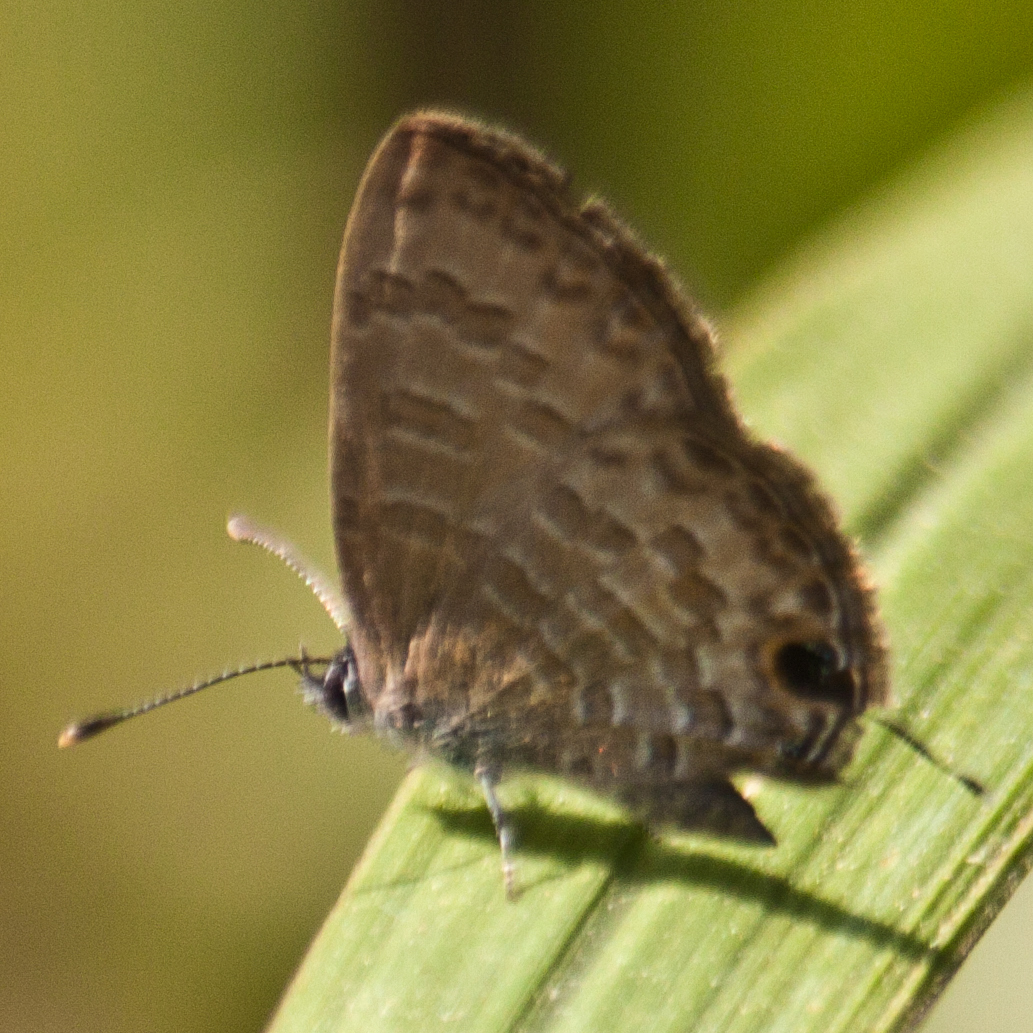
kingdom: Animalia
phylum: Arthropoda
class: Insecta
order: Lepidoptera
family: Lycaenidae
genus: Prosotas
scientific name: Prosotas nora
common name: Common line blue
